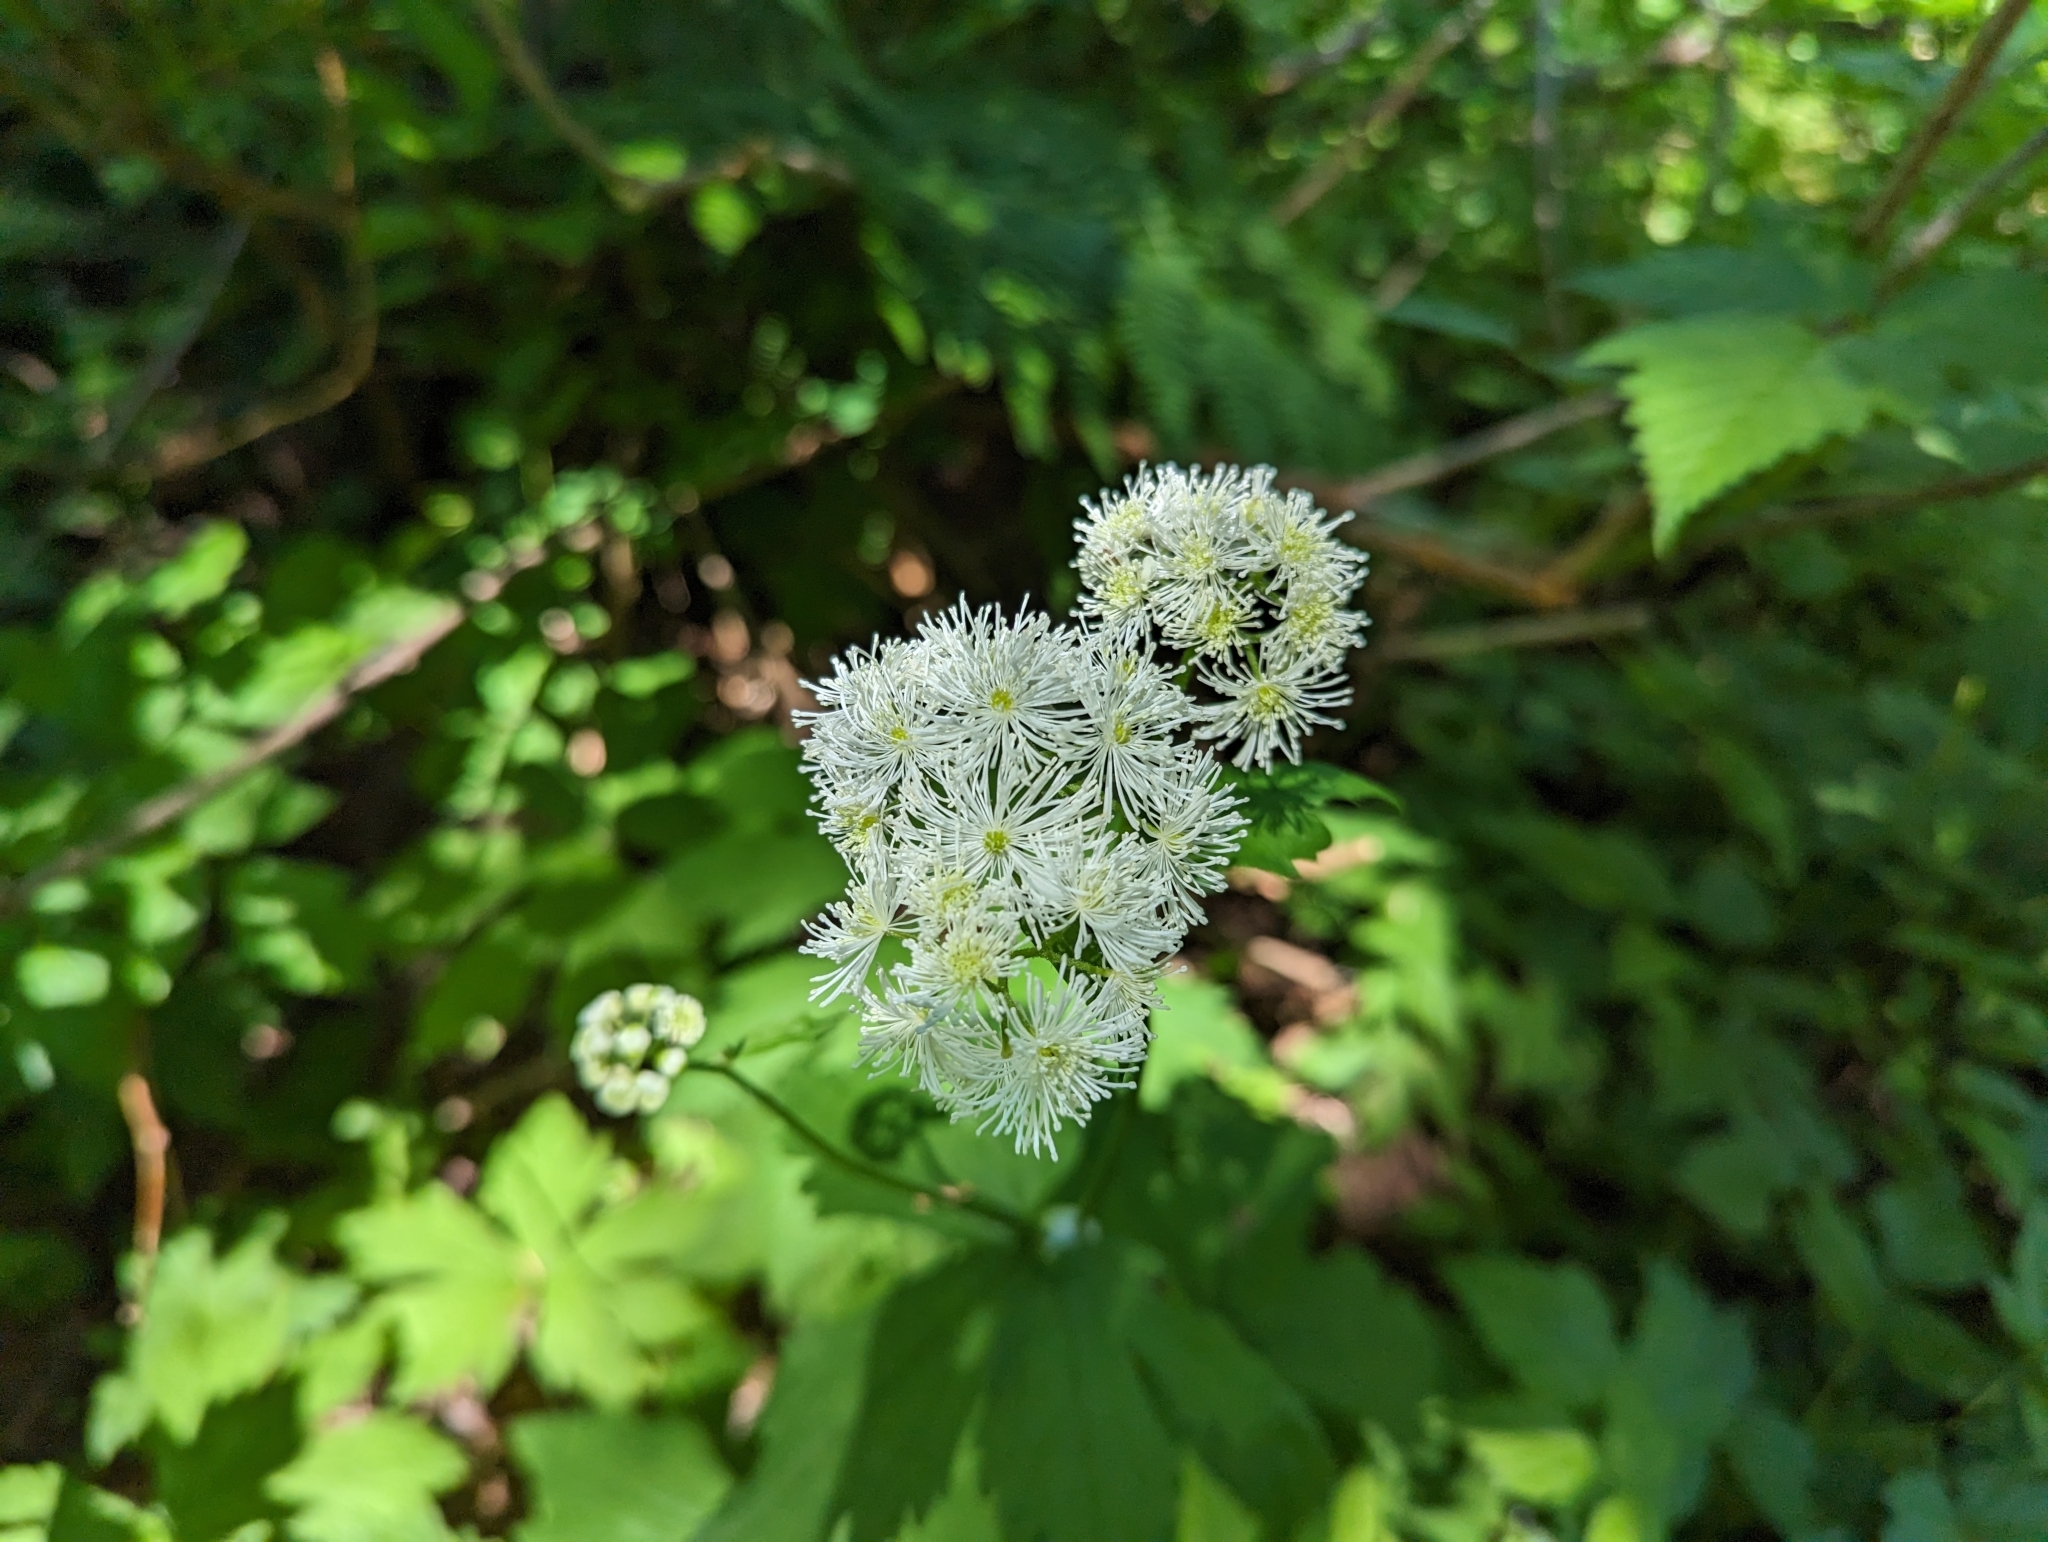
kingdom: Plantae
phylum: Tracheophyta
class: Magnoliopsida
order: Ranunculales
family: Ranunculaceae
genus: Trautvetteria
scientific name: Trautvetteria carolinensis
